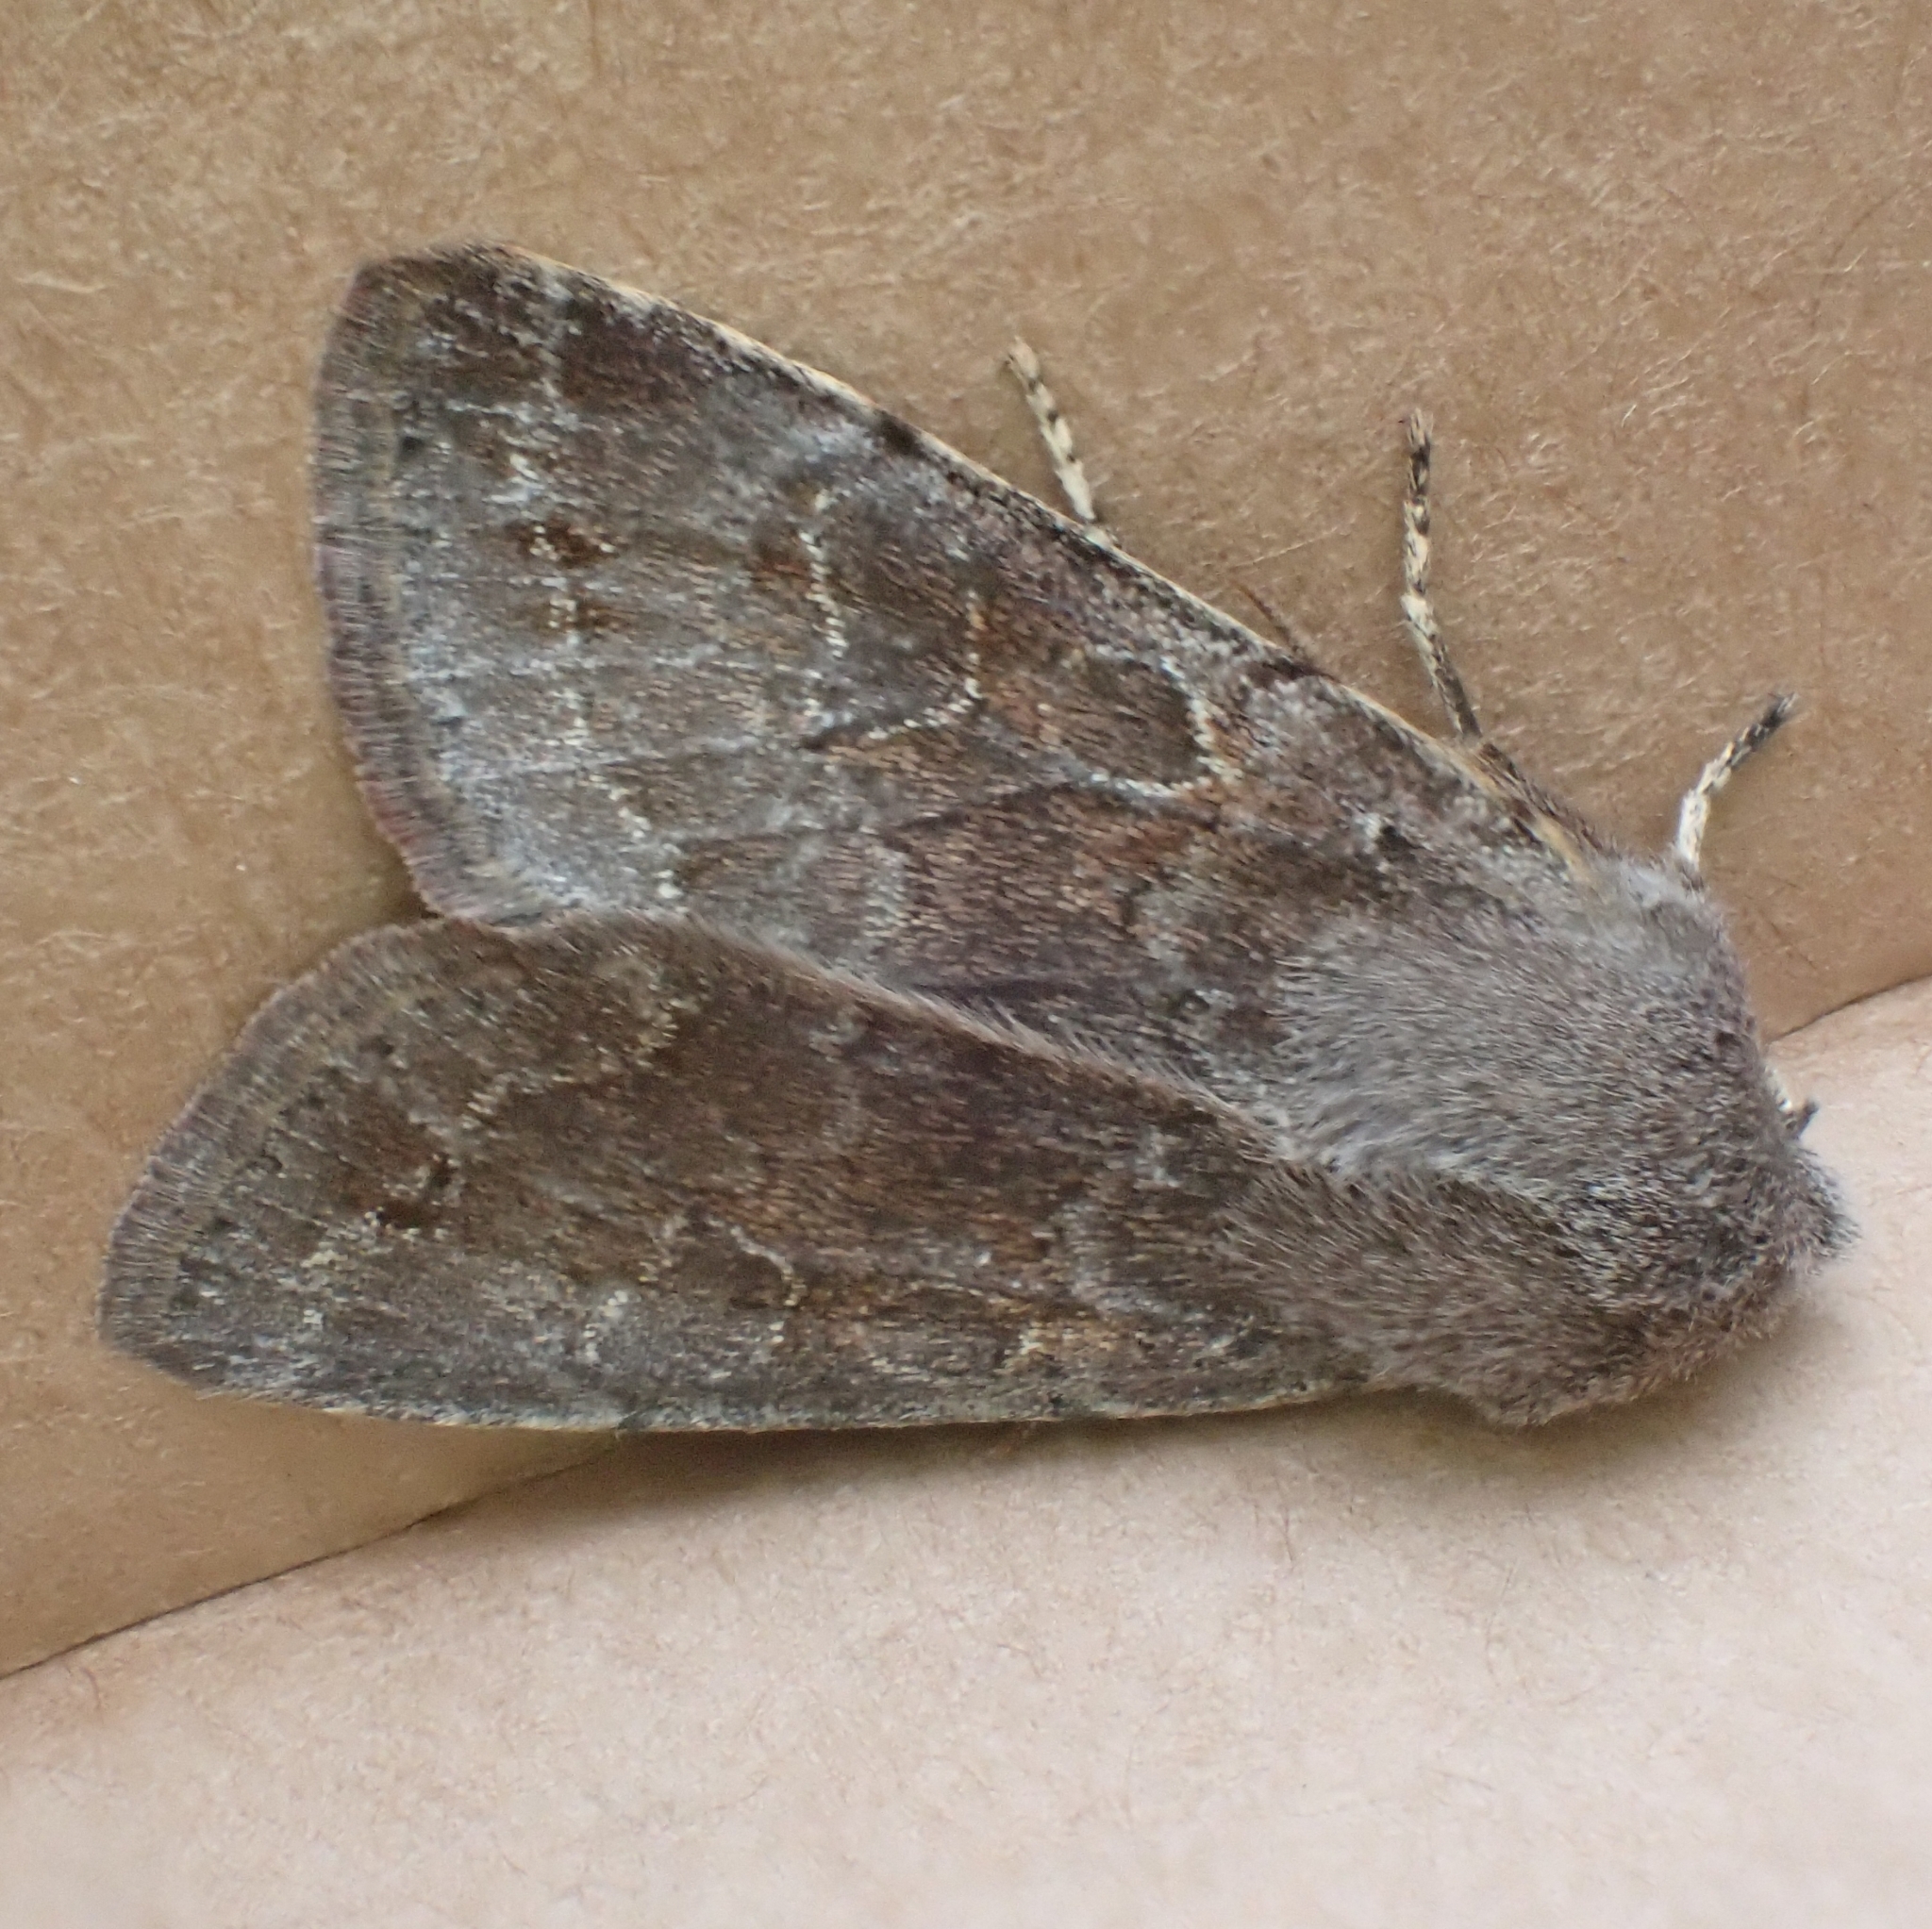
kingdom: Animalia
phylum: Arthropoda
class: Insecta
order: Lepidoptera
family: Noctuidae
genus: Orthosia
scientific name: Orthosia populeti
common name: Lead-coloured drab
